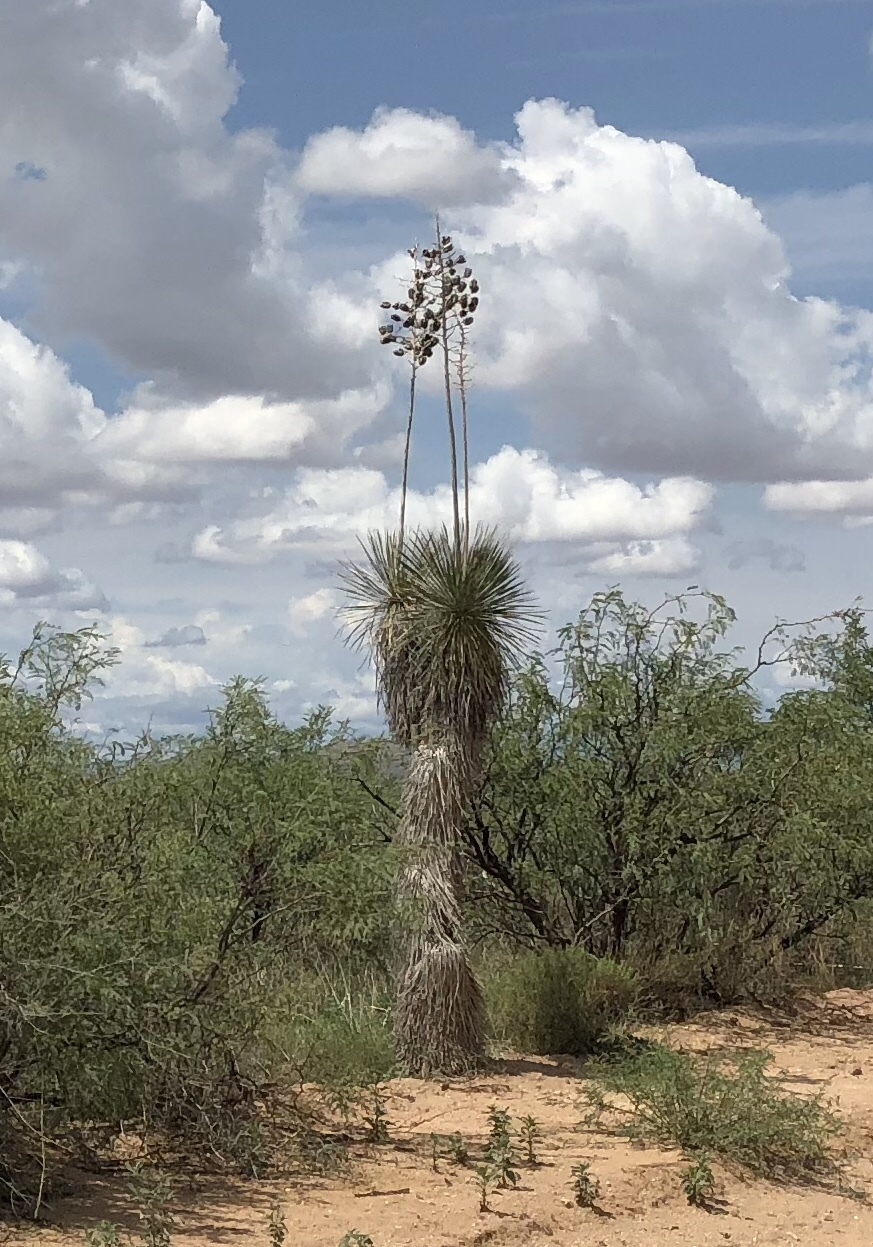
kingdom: Plantae
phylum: Tracheophyta
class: Liliopsida
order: Asparagales
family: Asparagaceae
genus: Yucca
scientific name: Yucca elata
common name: Palmella
